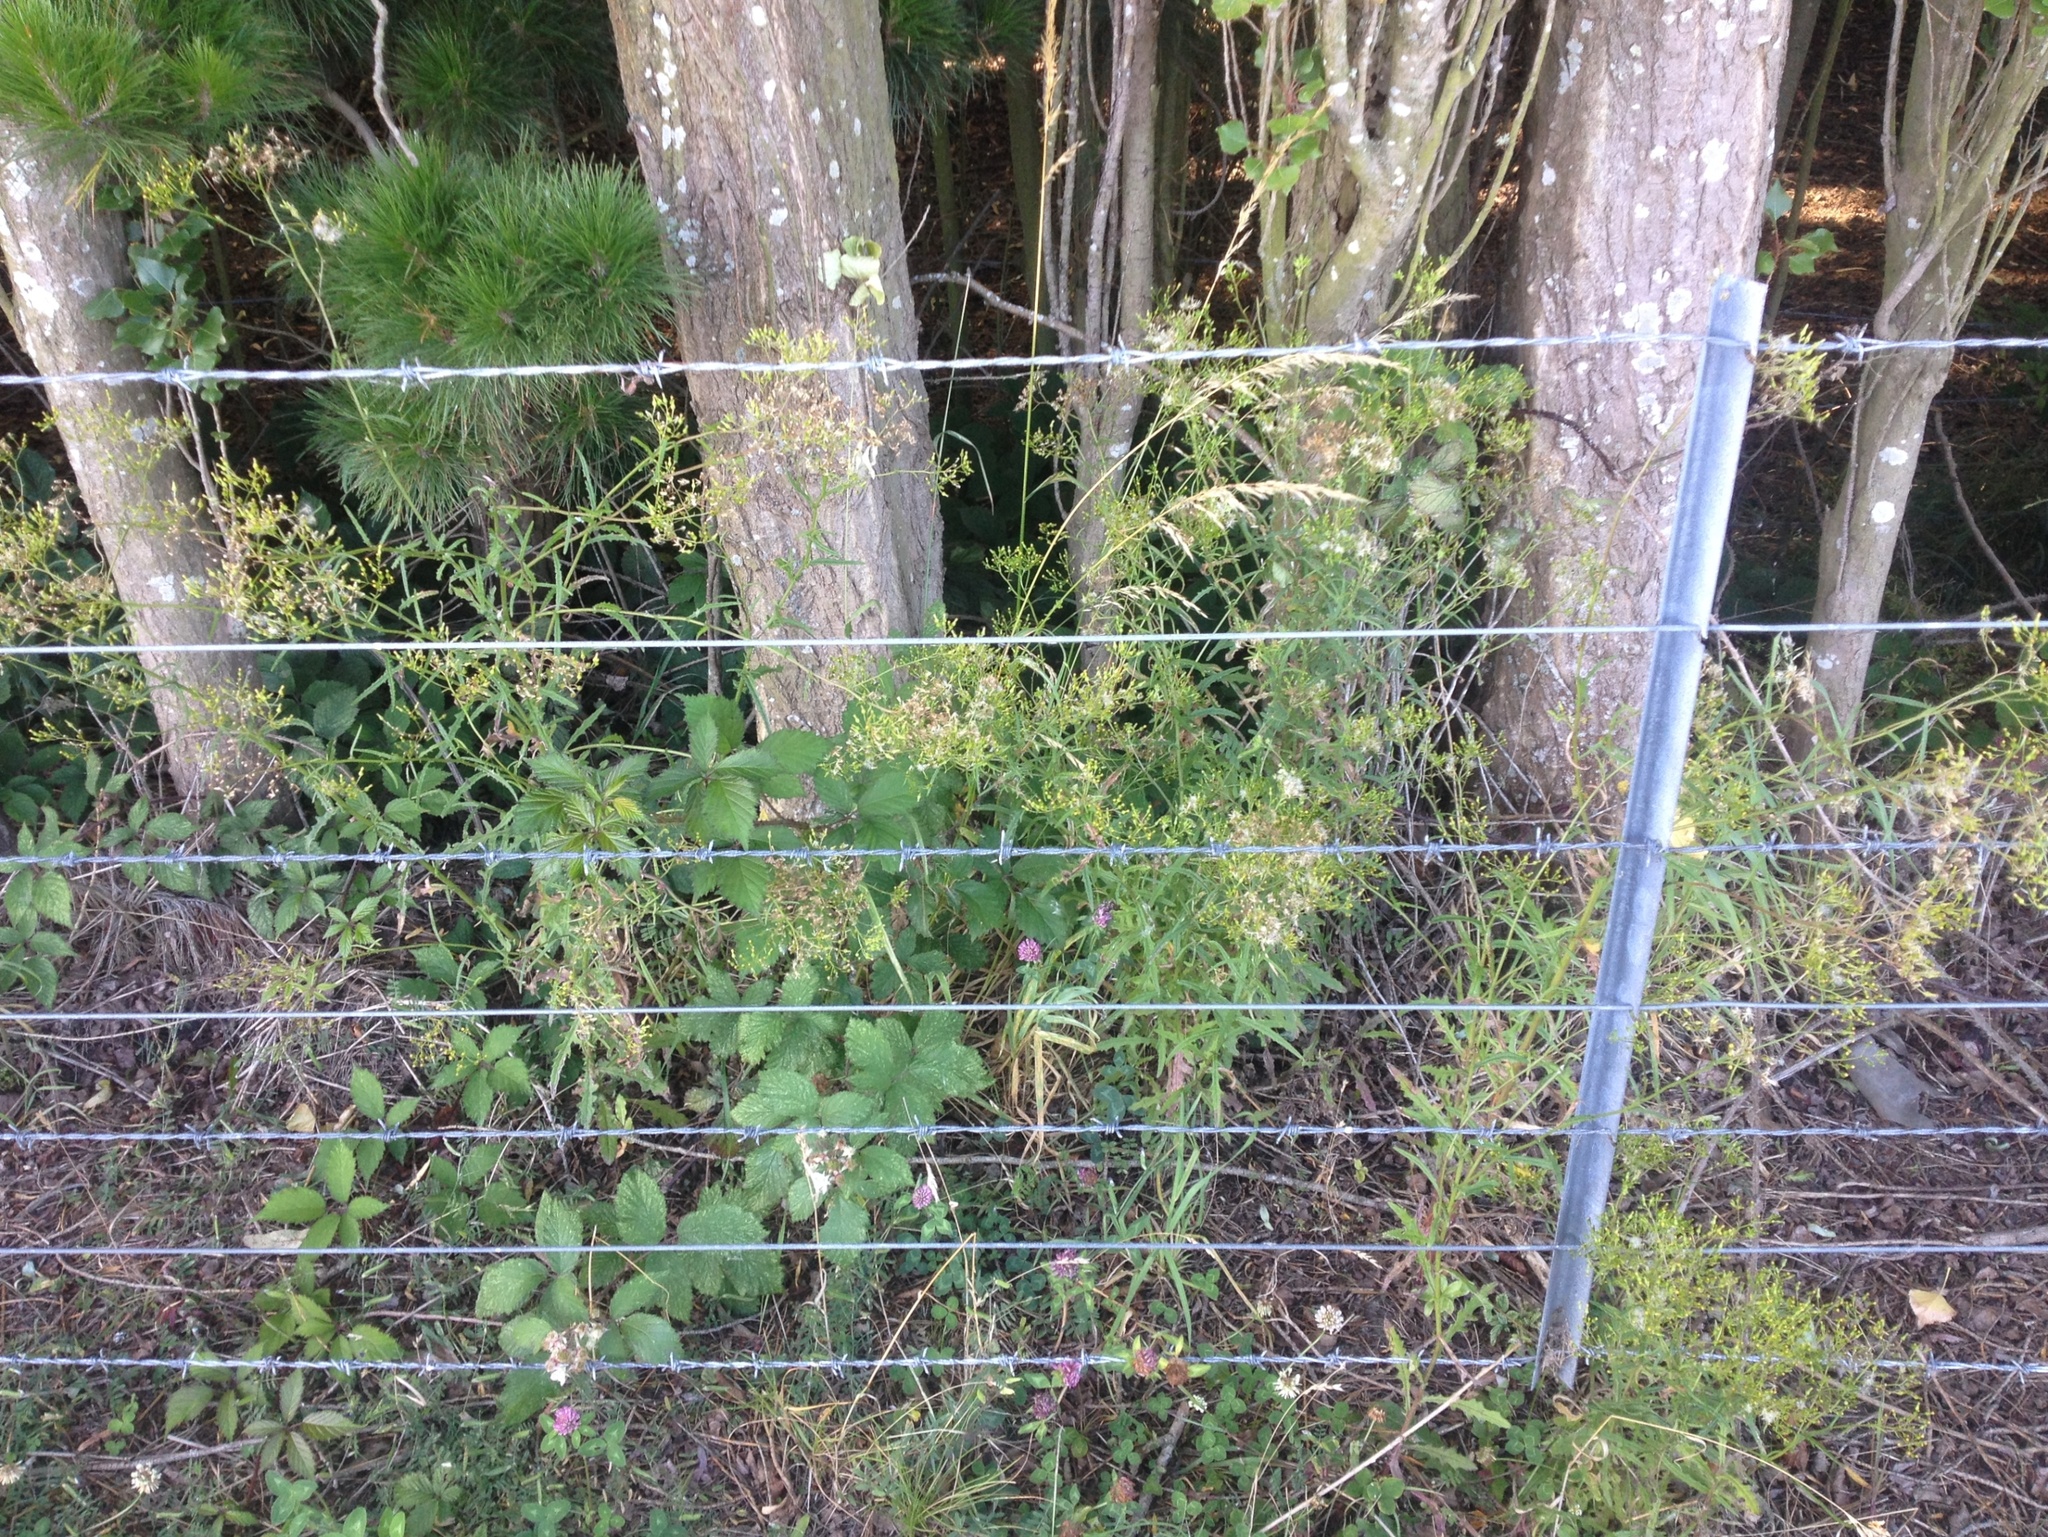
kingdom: Plantae
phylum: Tracheophyta
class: Magnoliopsida
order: Asterales
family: Asteraceae
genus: Senecio
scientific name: Senecio hispidulus
